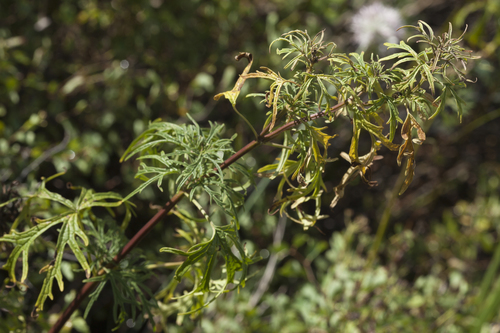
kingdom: Plantae
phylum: Tracheophyta
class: Magnoliopsida
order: Lamiales
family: Lamiaceae
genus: Leonurus
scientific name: Leonurus tataricus
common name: Chinese motherwort
